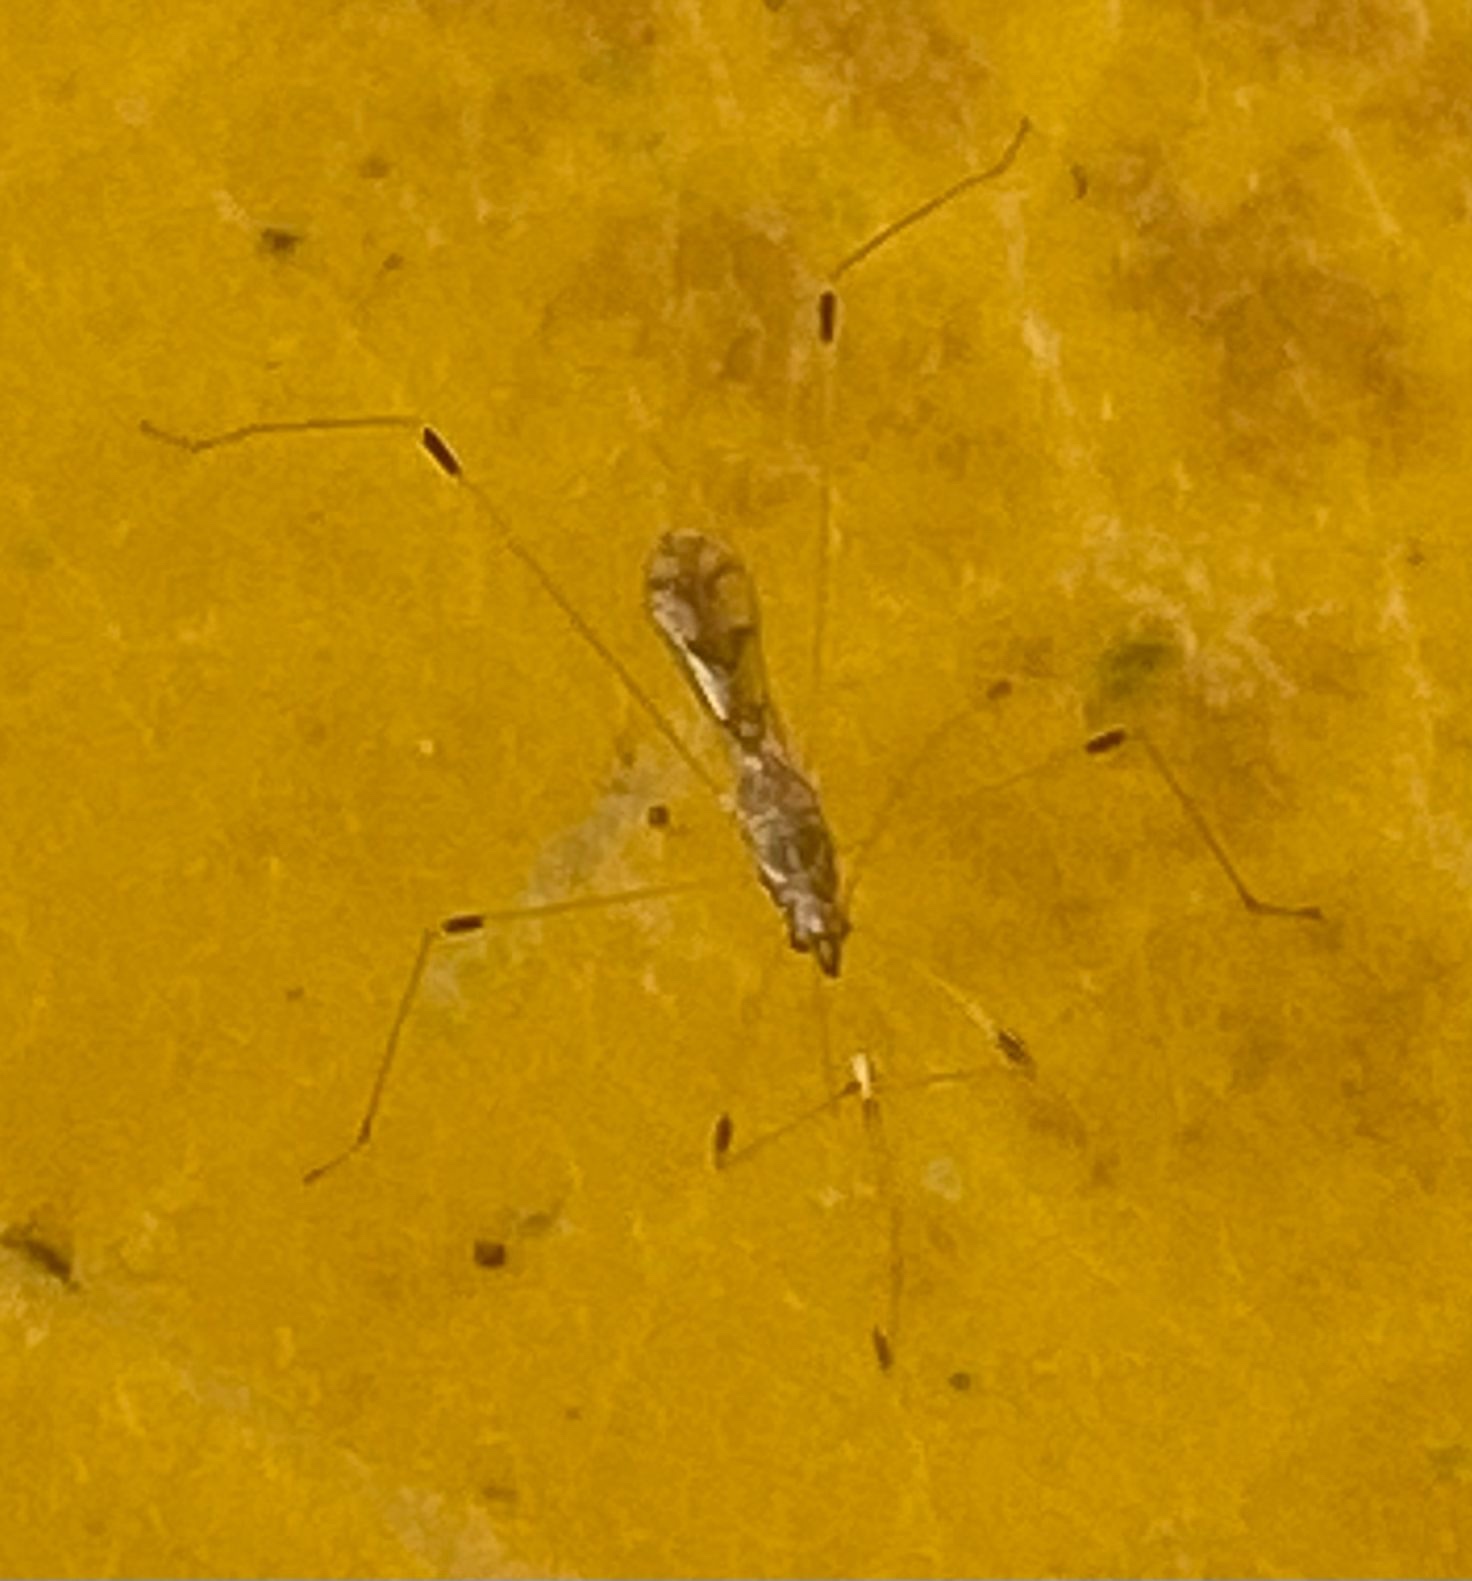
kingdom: Animalia
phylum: Arthropoda
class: Insecta
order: Hemiptera
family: Berytidae
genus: Neostusakia
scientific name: Neostusakia picticornis
